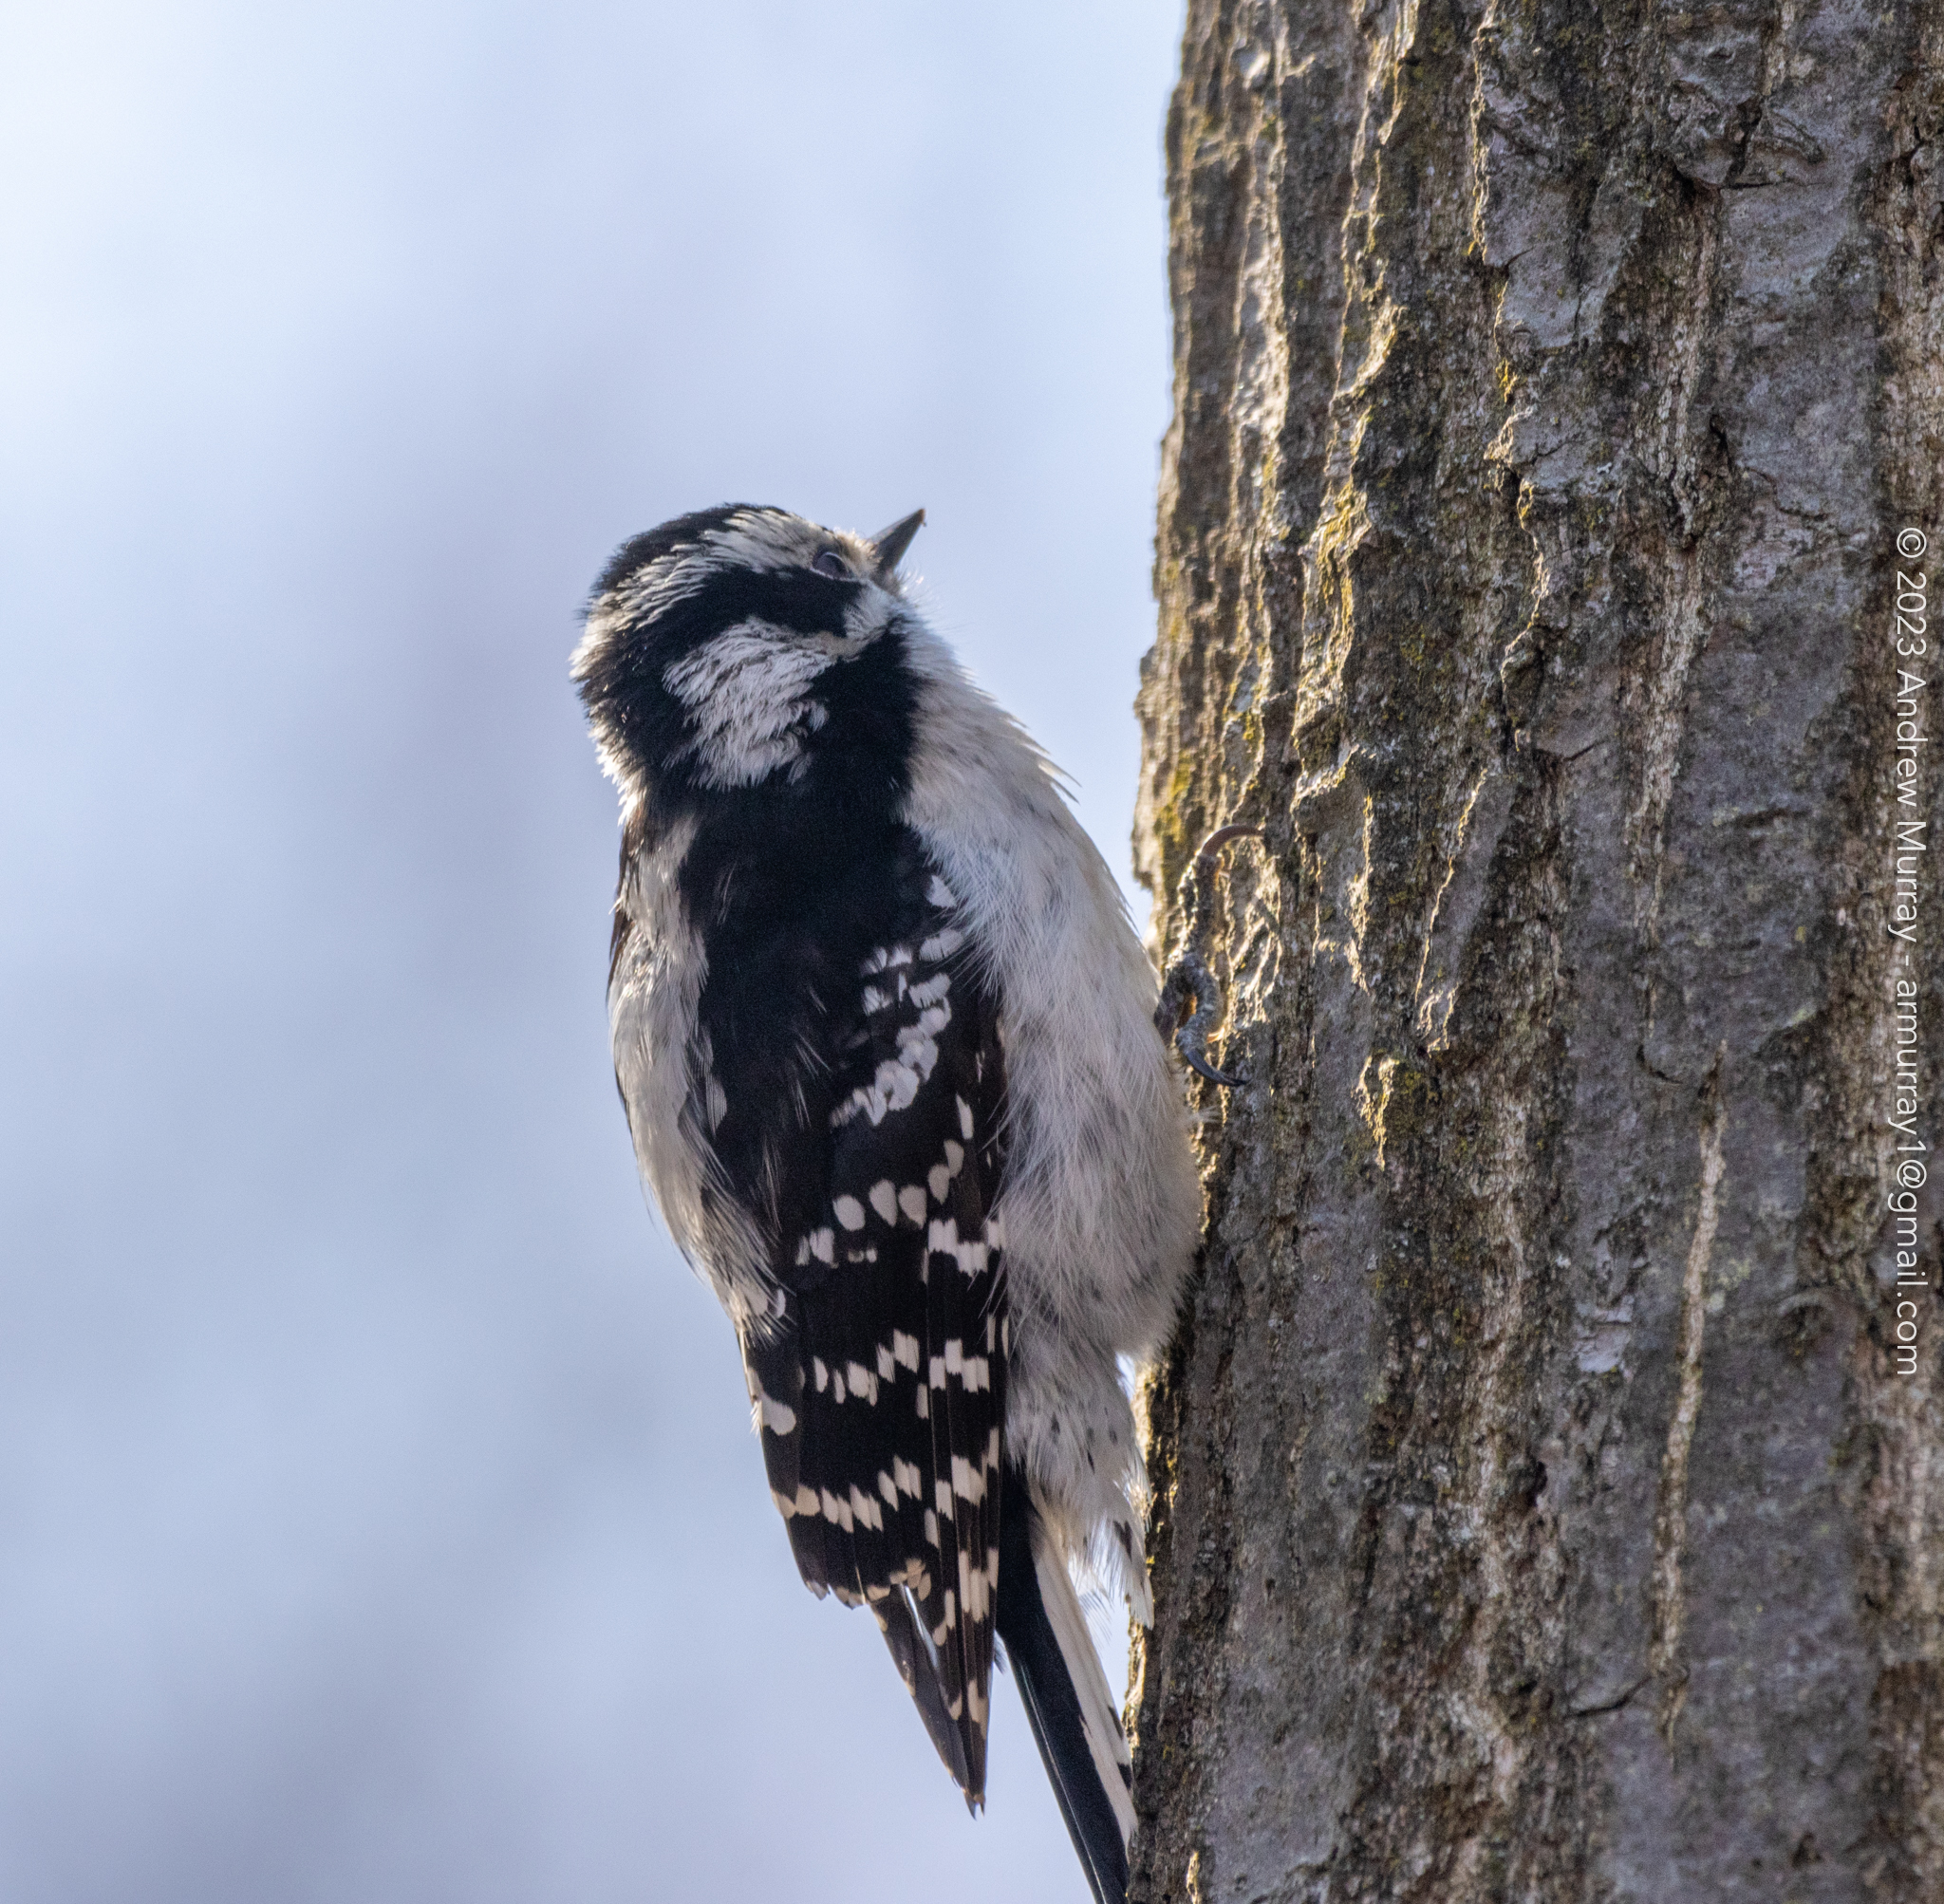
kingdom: Animalia
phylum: Chordata
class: Aves
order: Piciformes
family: Picidae
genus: Dryobates
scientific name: Dryobates pubescens
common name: Downy woodpecker
